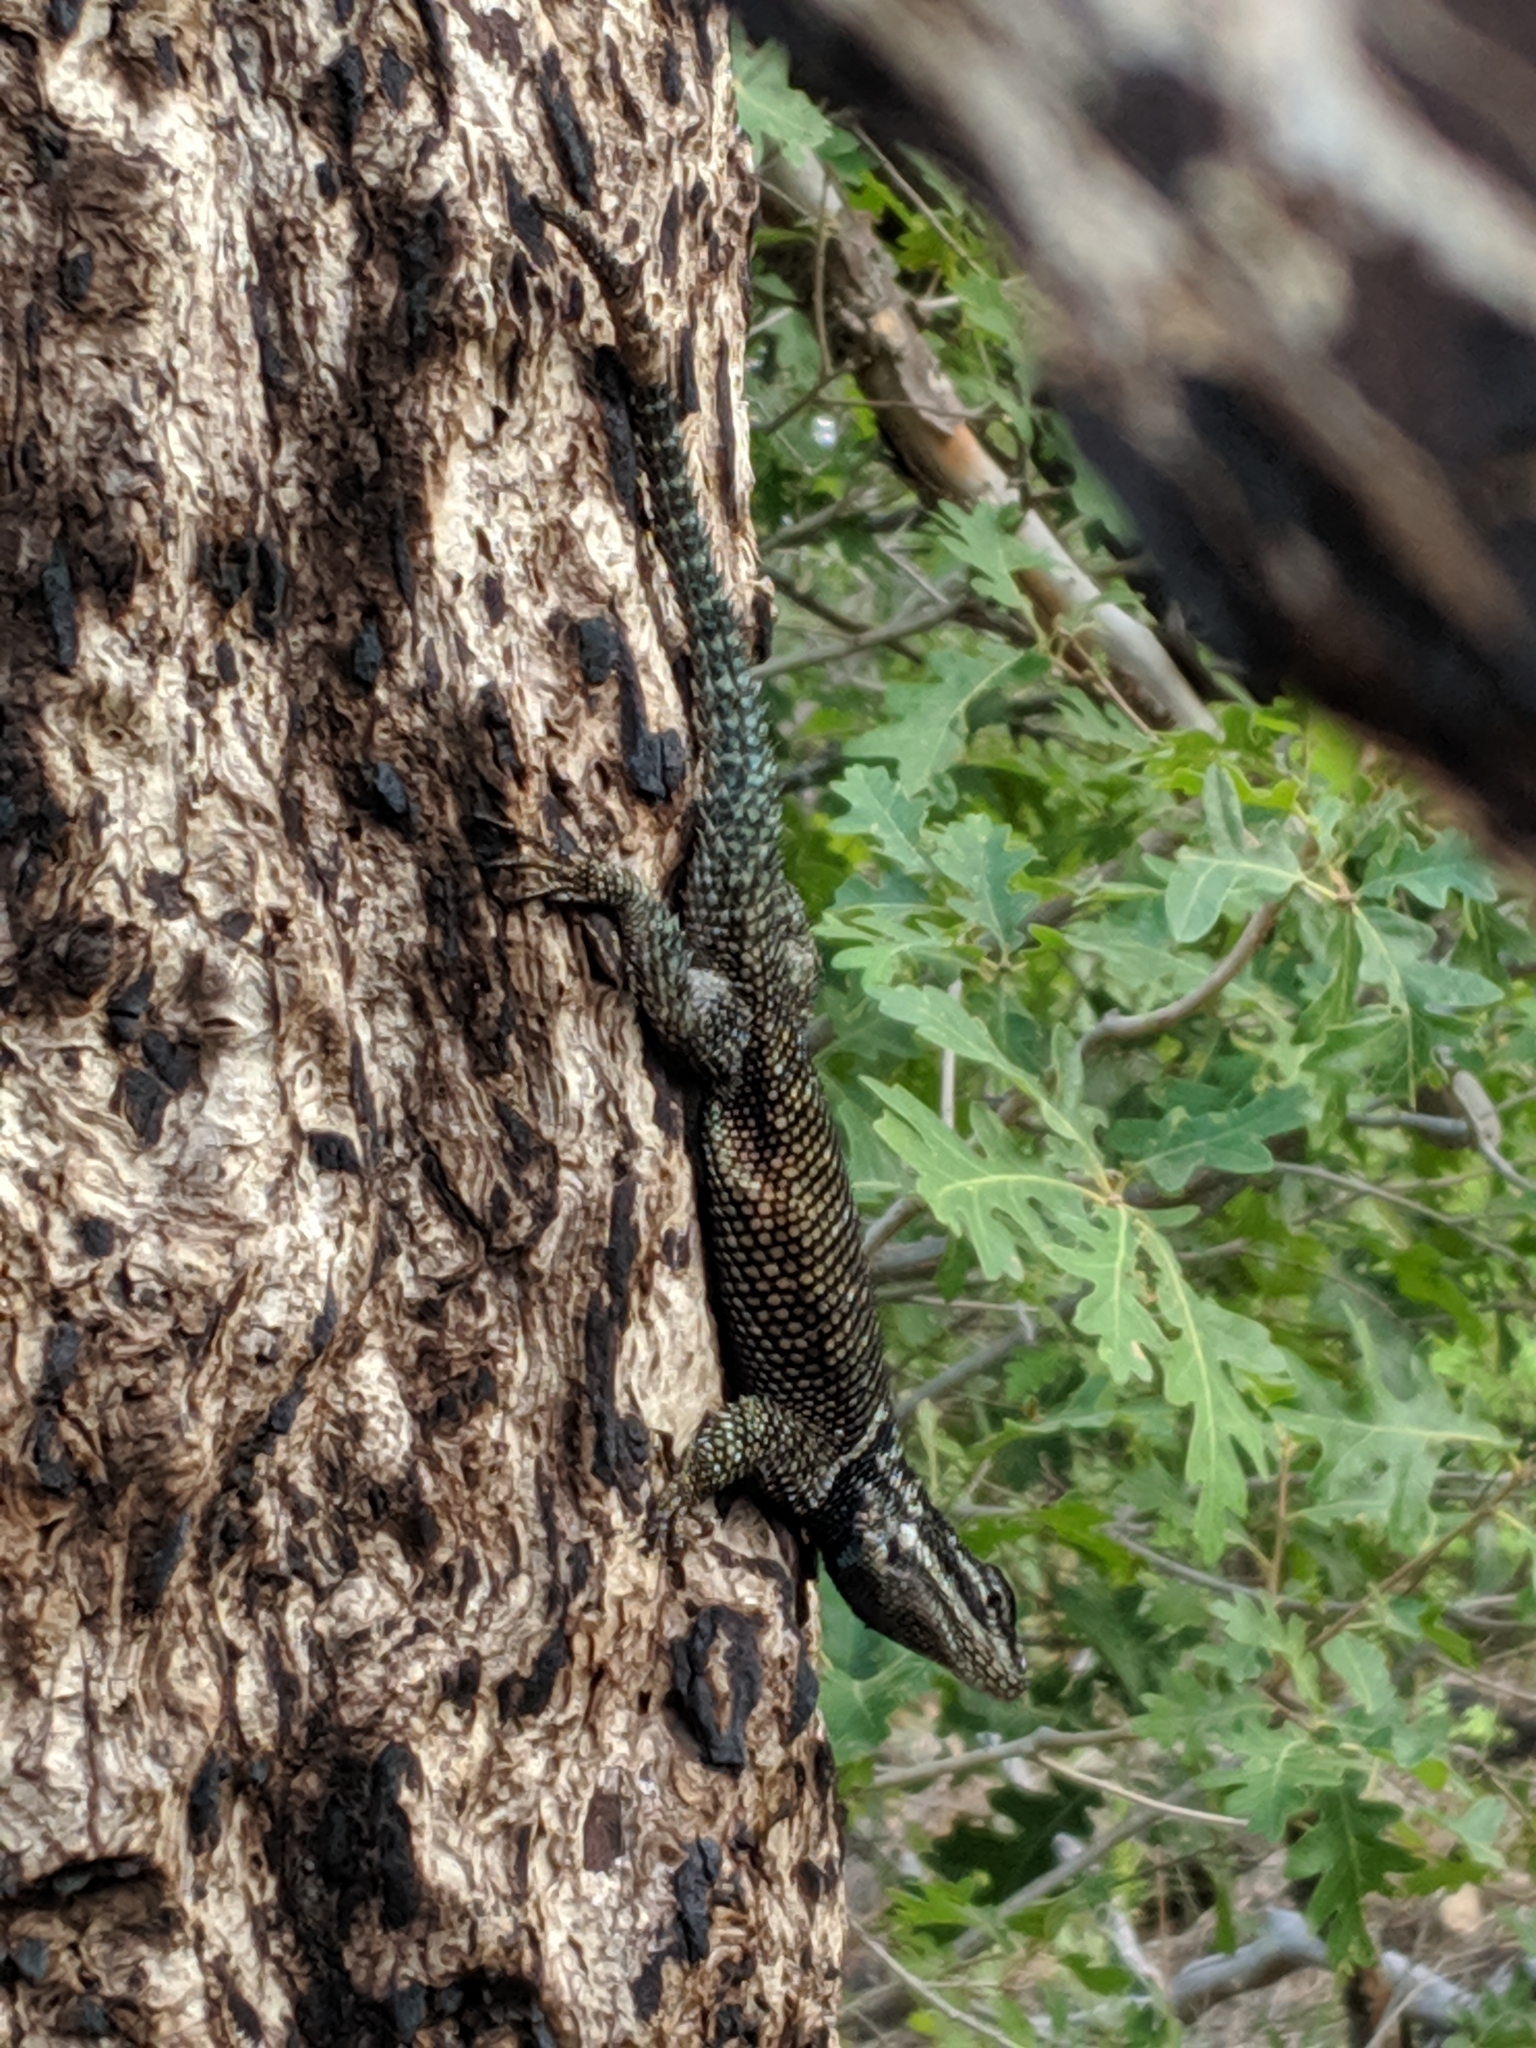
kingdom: Animalia
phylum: Chordata
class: Squamata
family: Phrynosomatidae
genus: Sceloporus
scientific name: Sceloporus jarrovii
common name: Yarrow's spiny lizard
